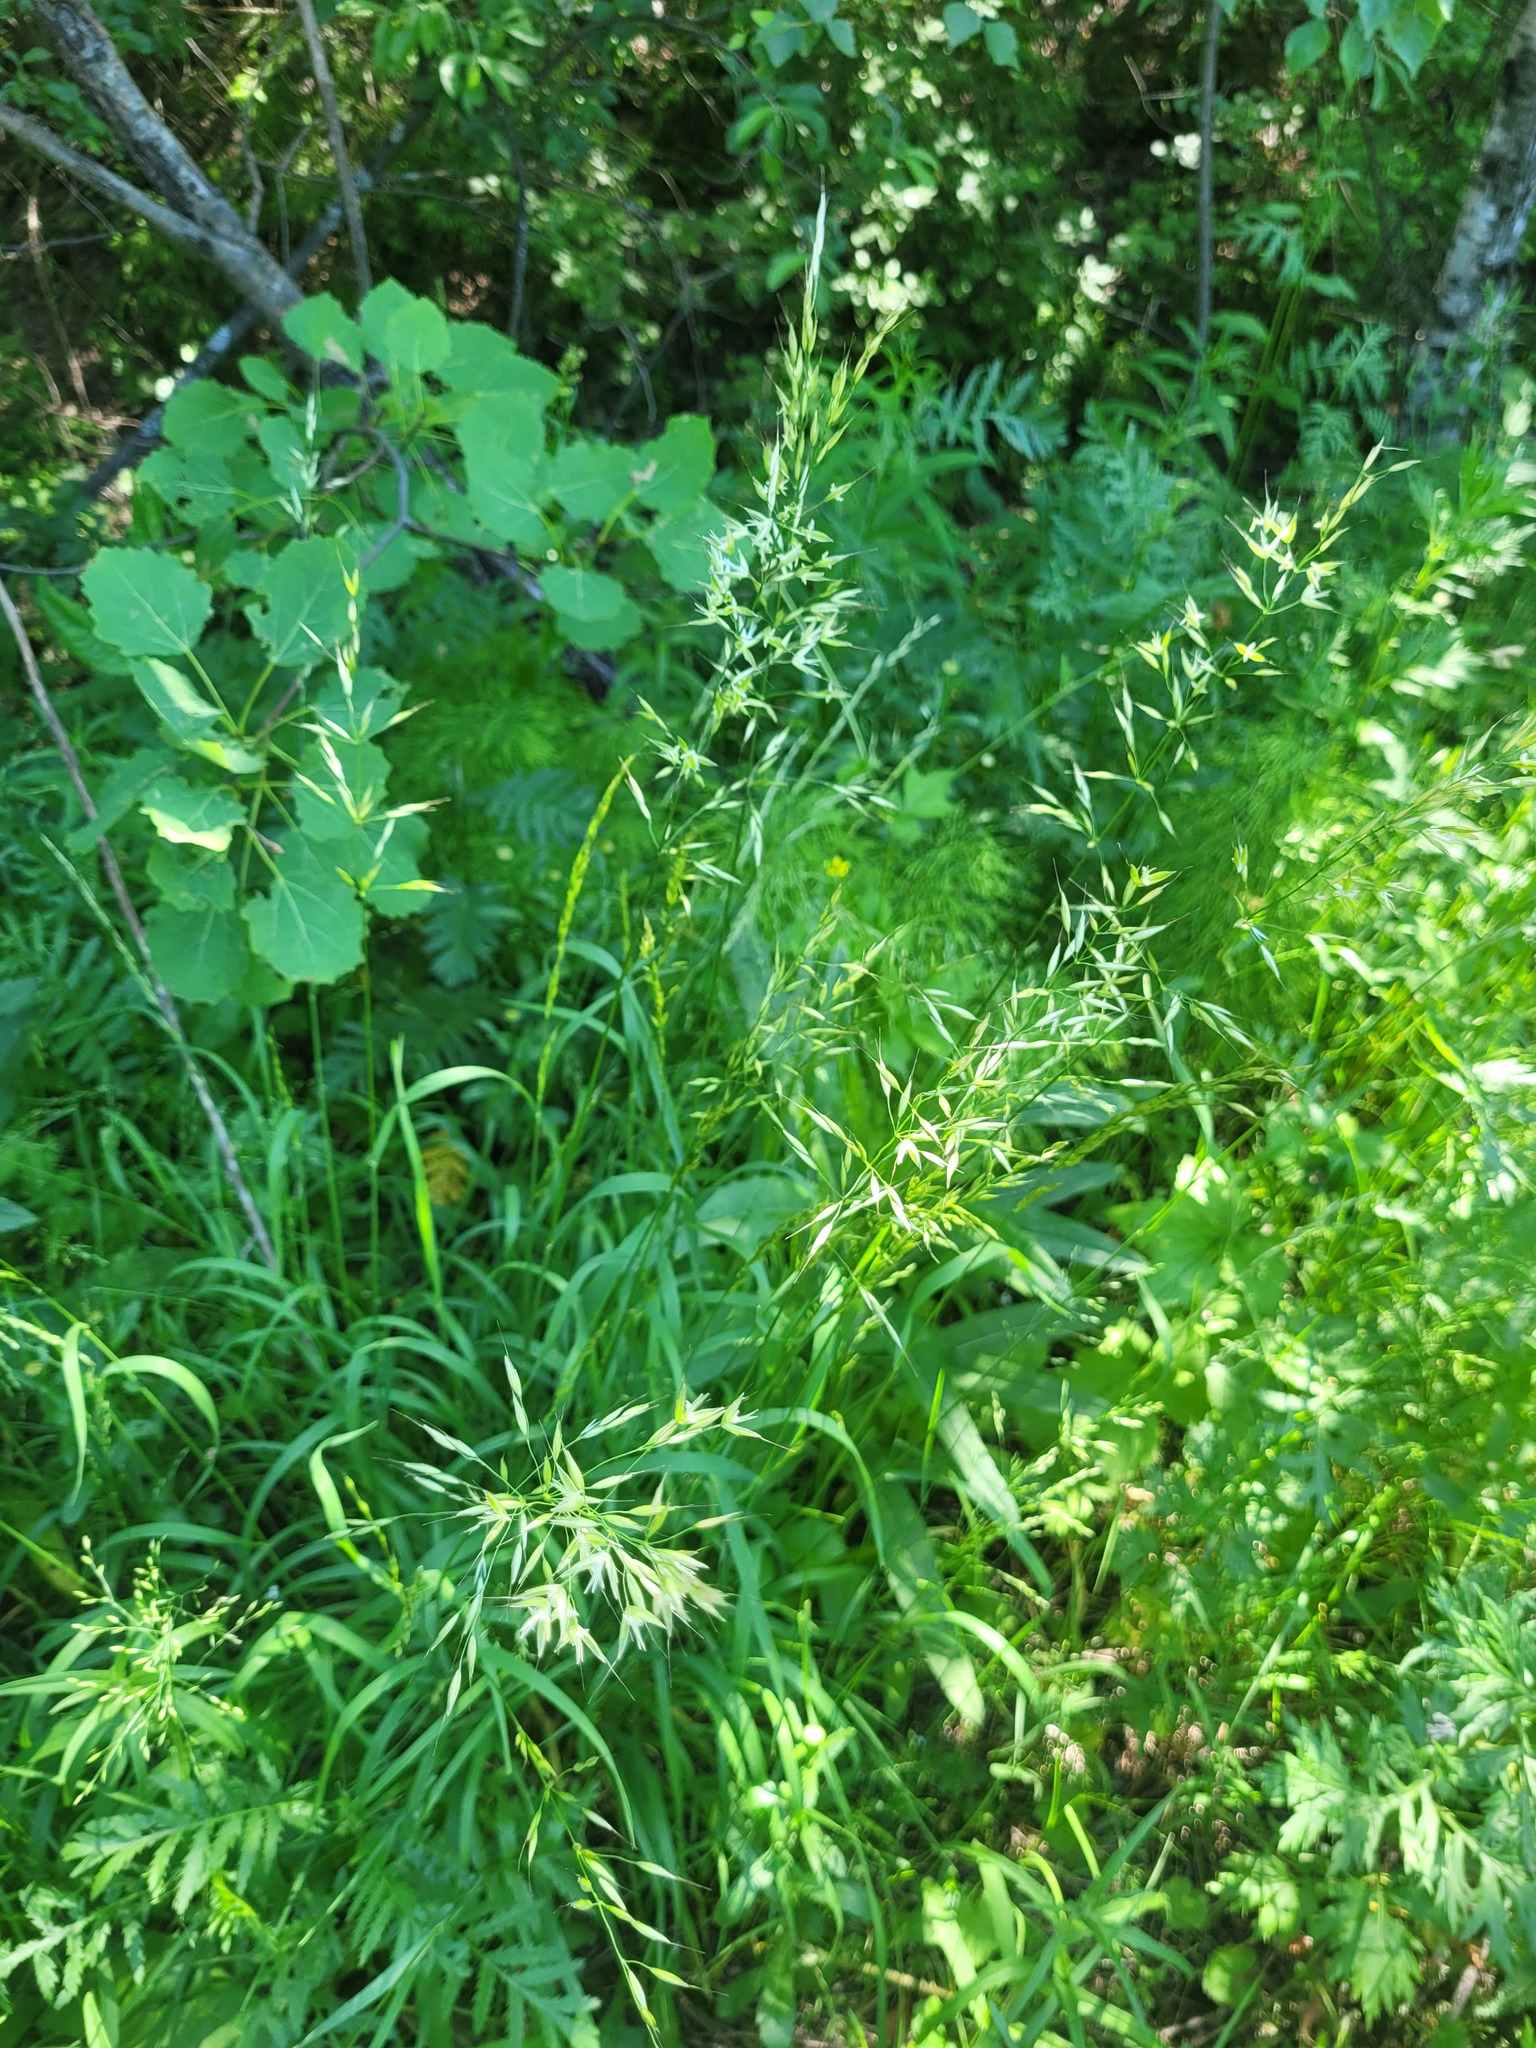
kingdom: Plantae
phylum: Tracheophyta
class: Liliopsida
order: Poales
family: Poaceae
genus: Arrhenatherum
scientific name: Arrhenatherum elatius
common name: Tall oatgrass
